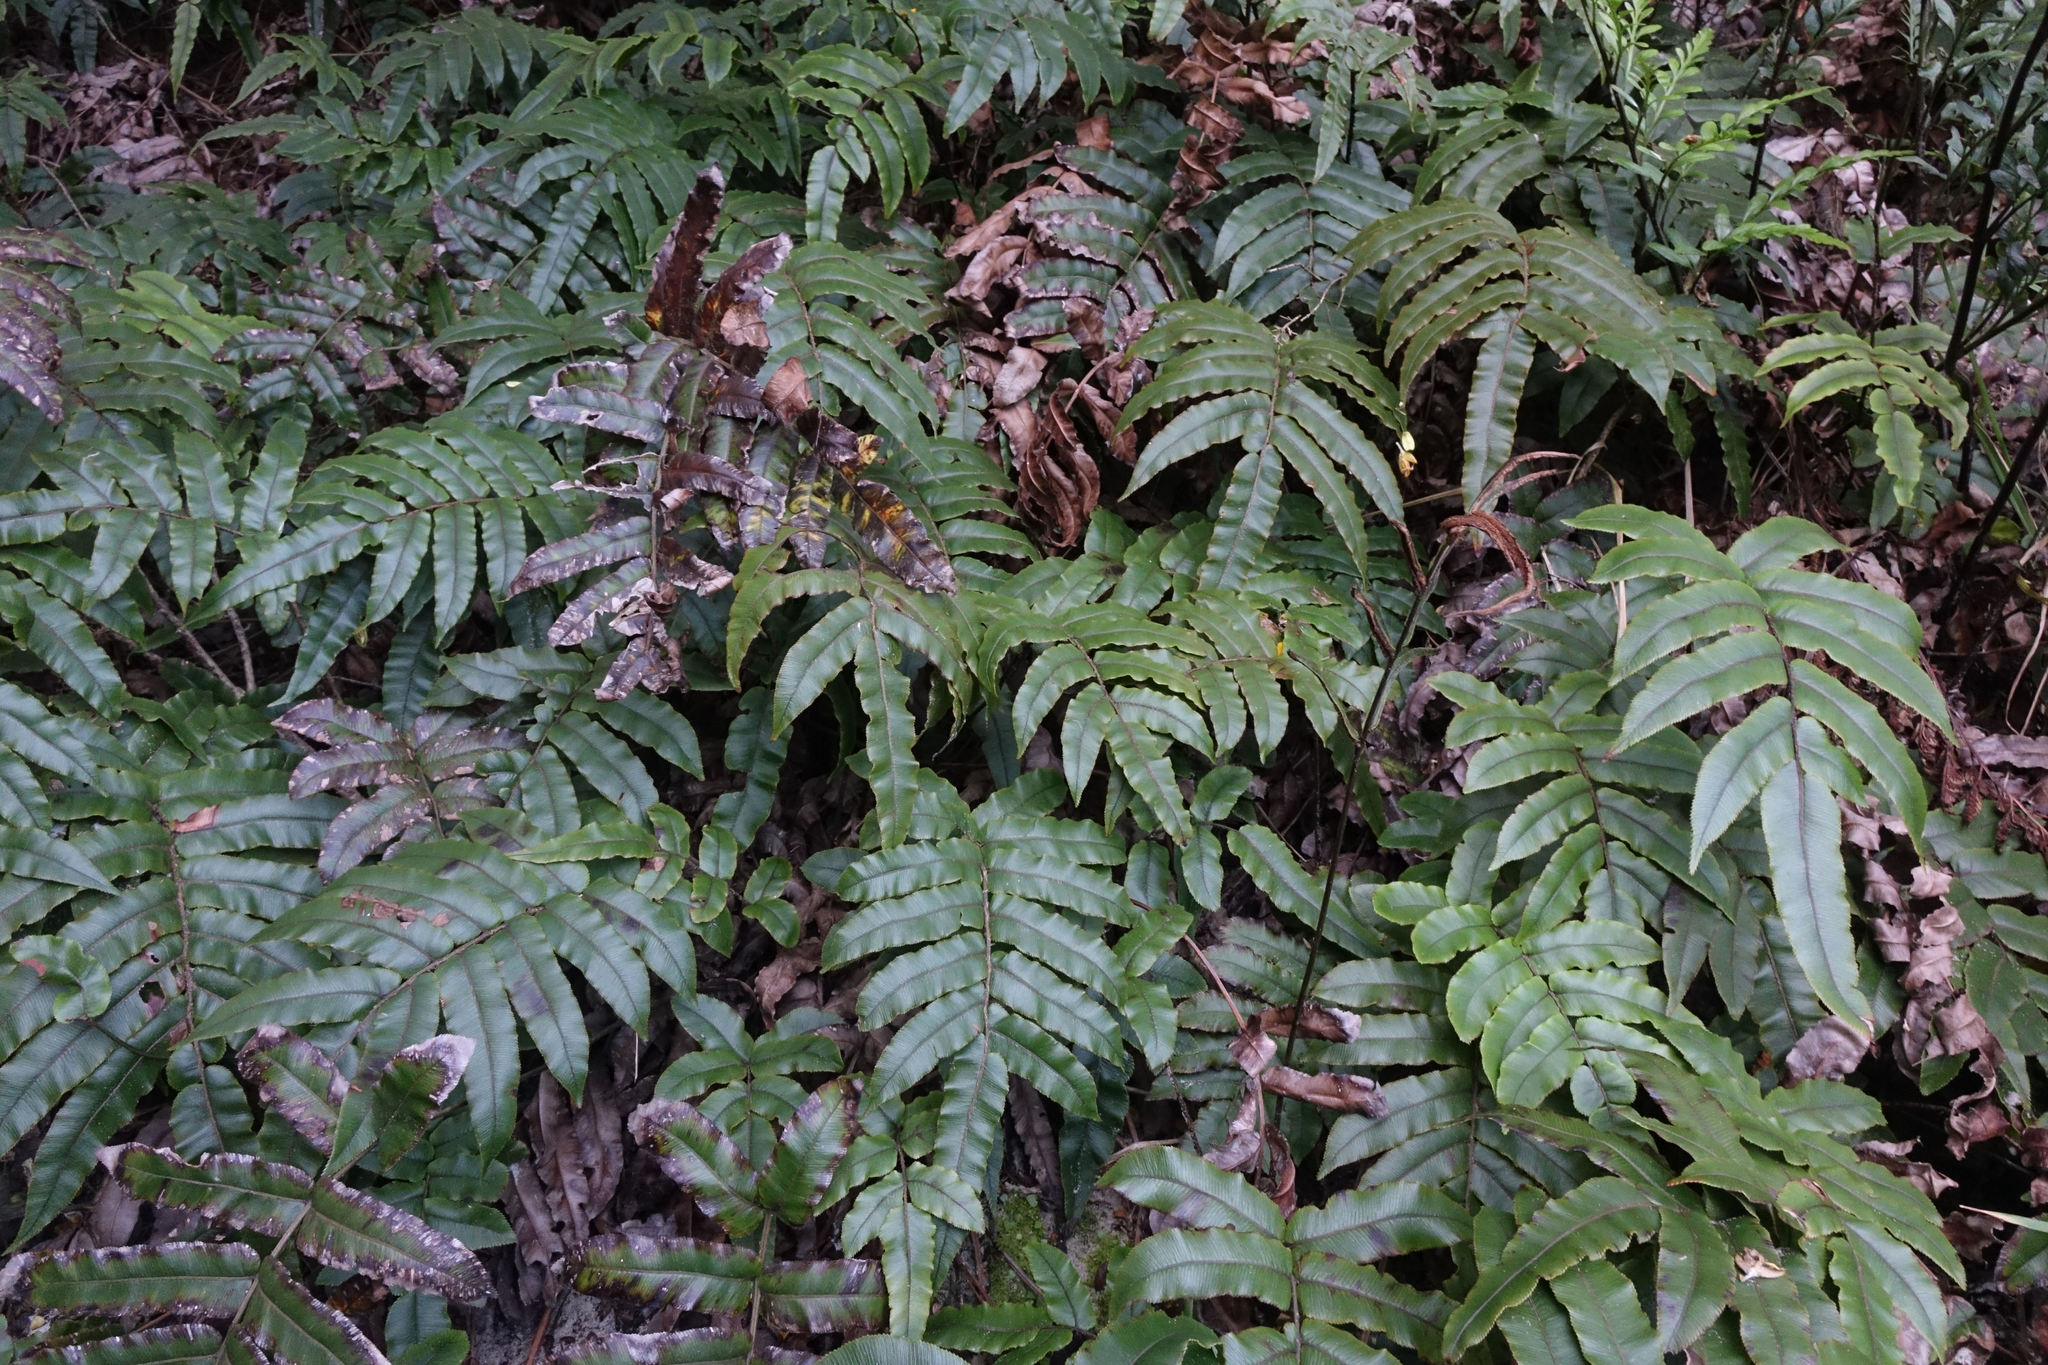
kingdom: Plantae
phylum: Tracheophyta
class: Polypodiopsida
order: Polypodiales
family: Blechnaceae
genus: Parablechnum
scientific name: Parablechnum procerum
